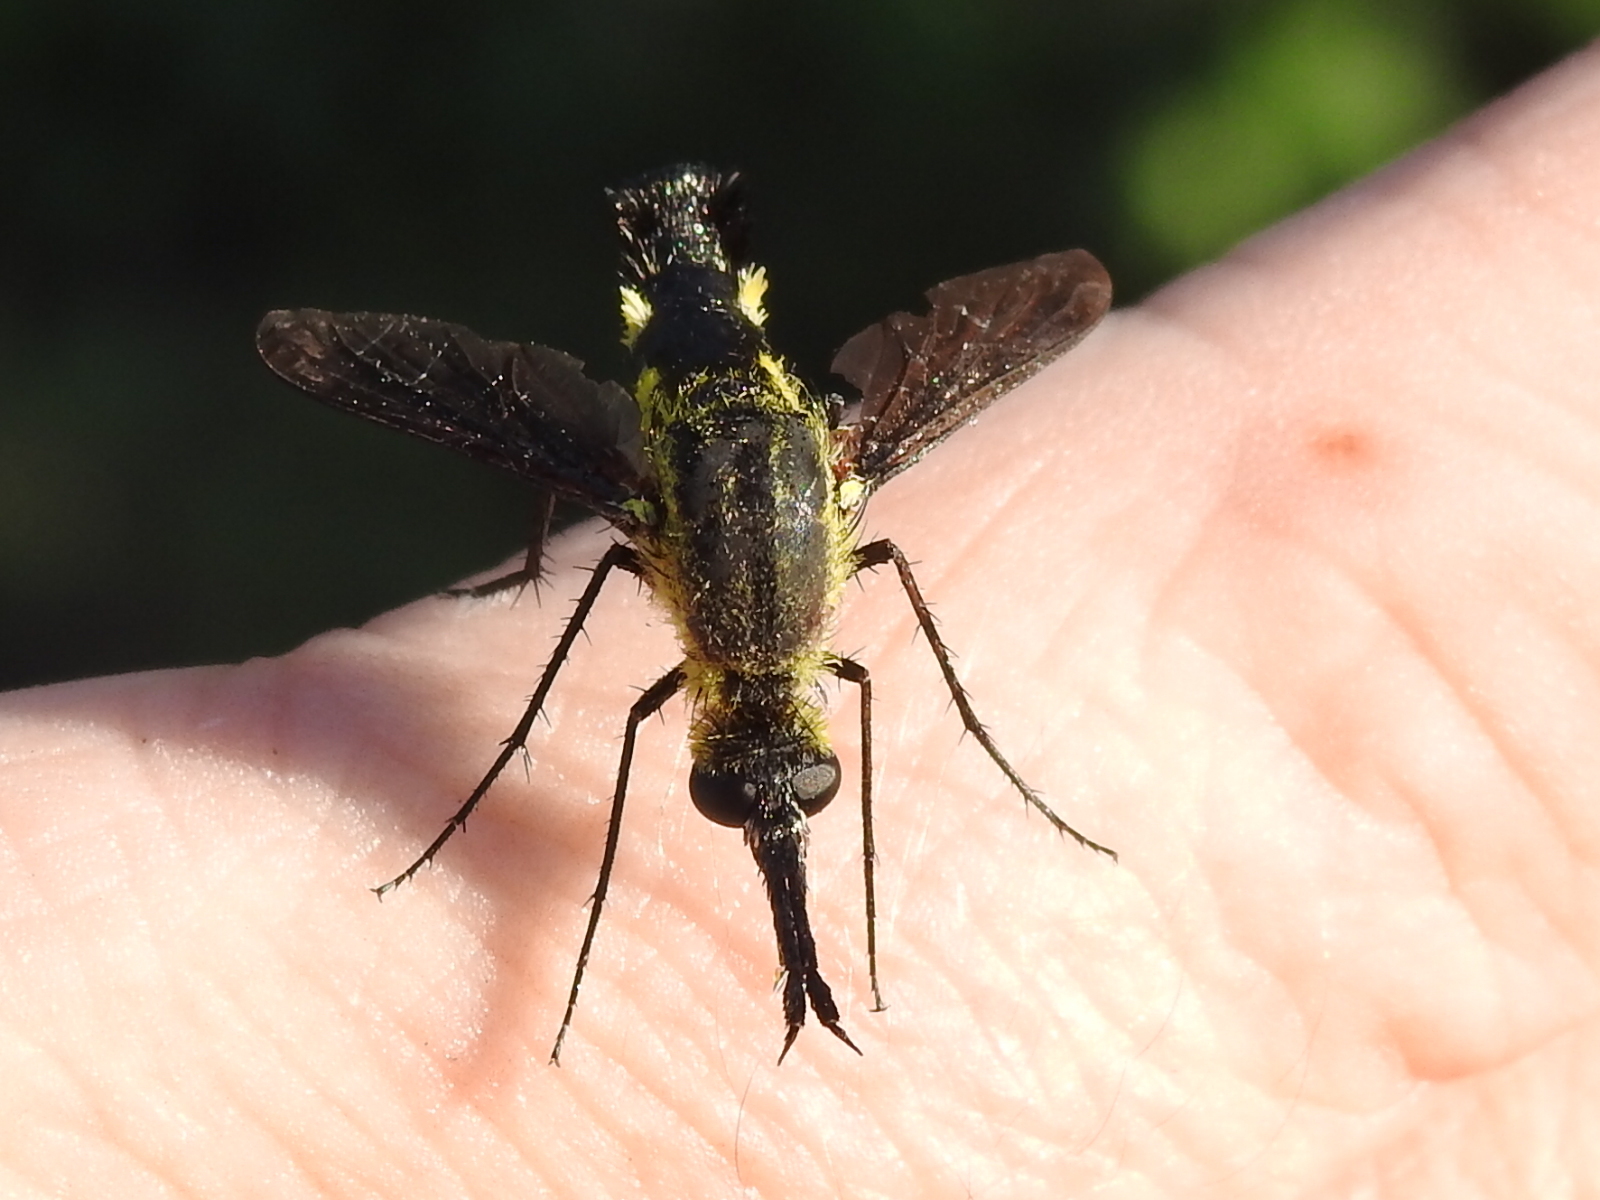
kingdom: Animalia
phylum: Arthropoda
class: Insecta
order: Diptera
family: Bombyliidae
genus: Lepidophora
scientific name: Lepidophora lepidocera
